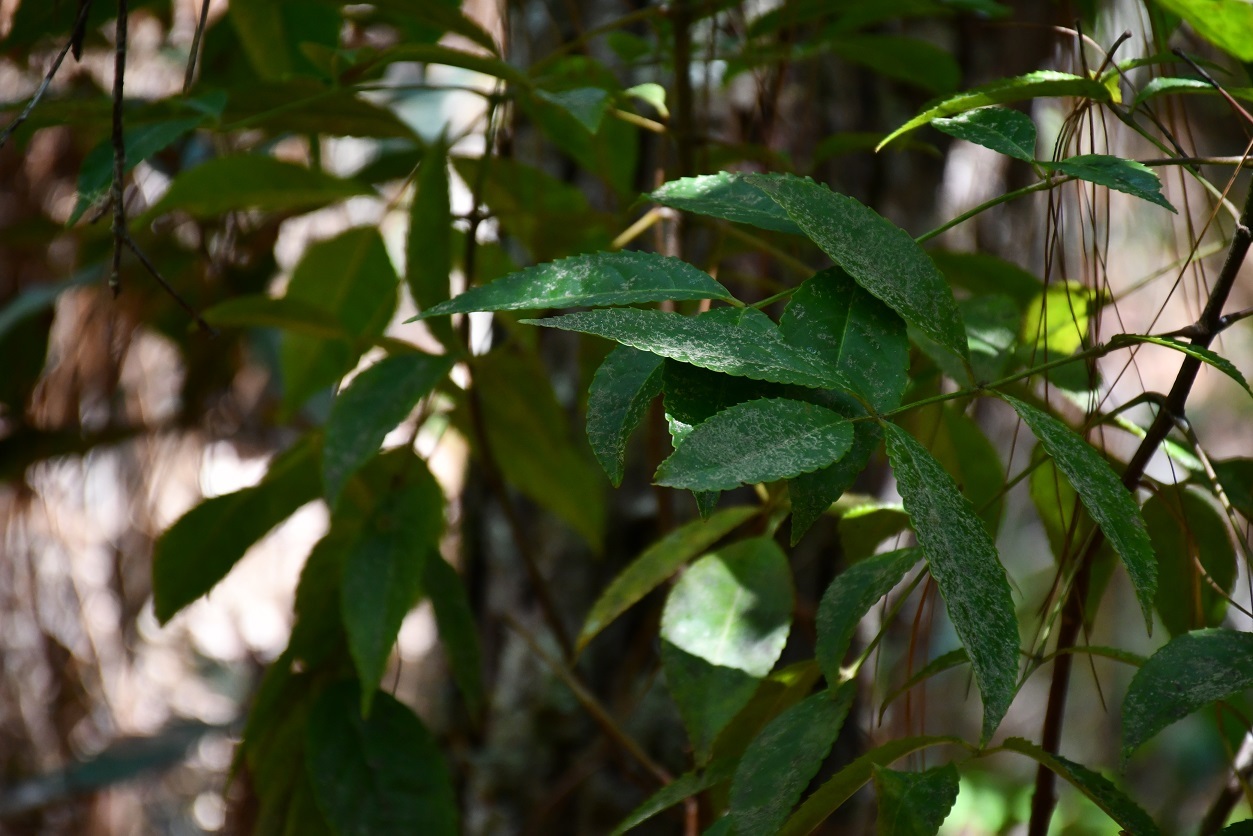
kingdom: Plantae
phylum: Tracheophyta
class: Magnoliopsida
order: Crossosomatales
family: Staphyleaceae
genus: Turpinia
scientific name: Turpinia tricornuta
